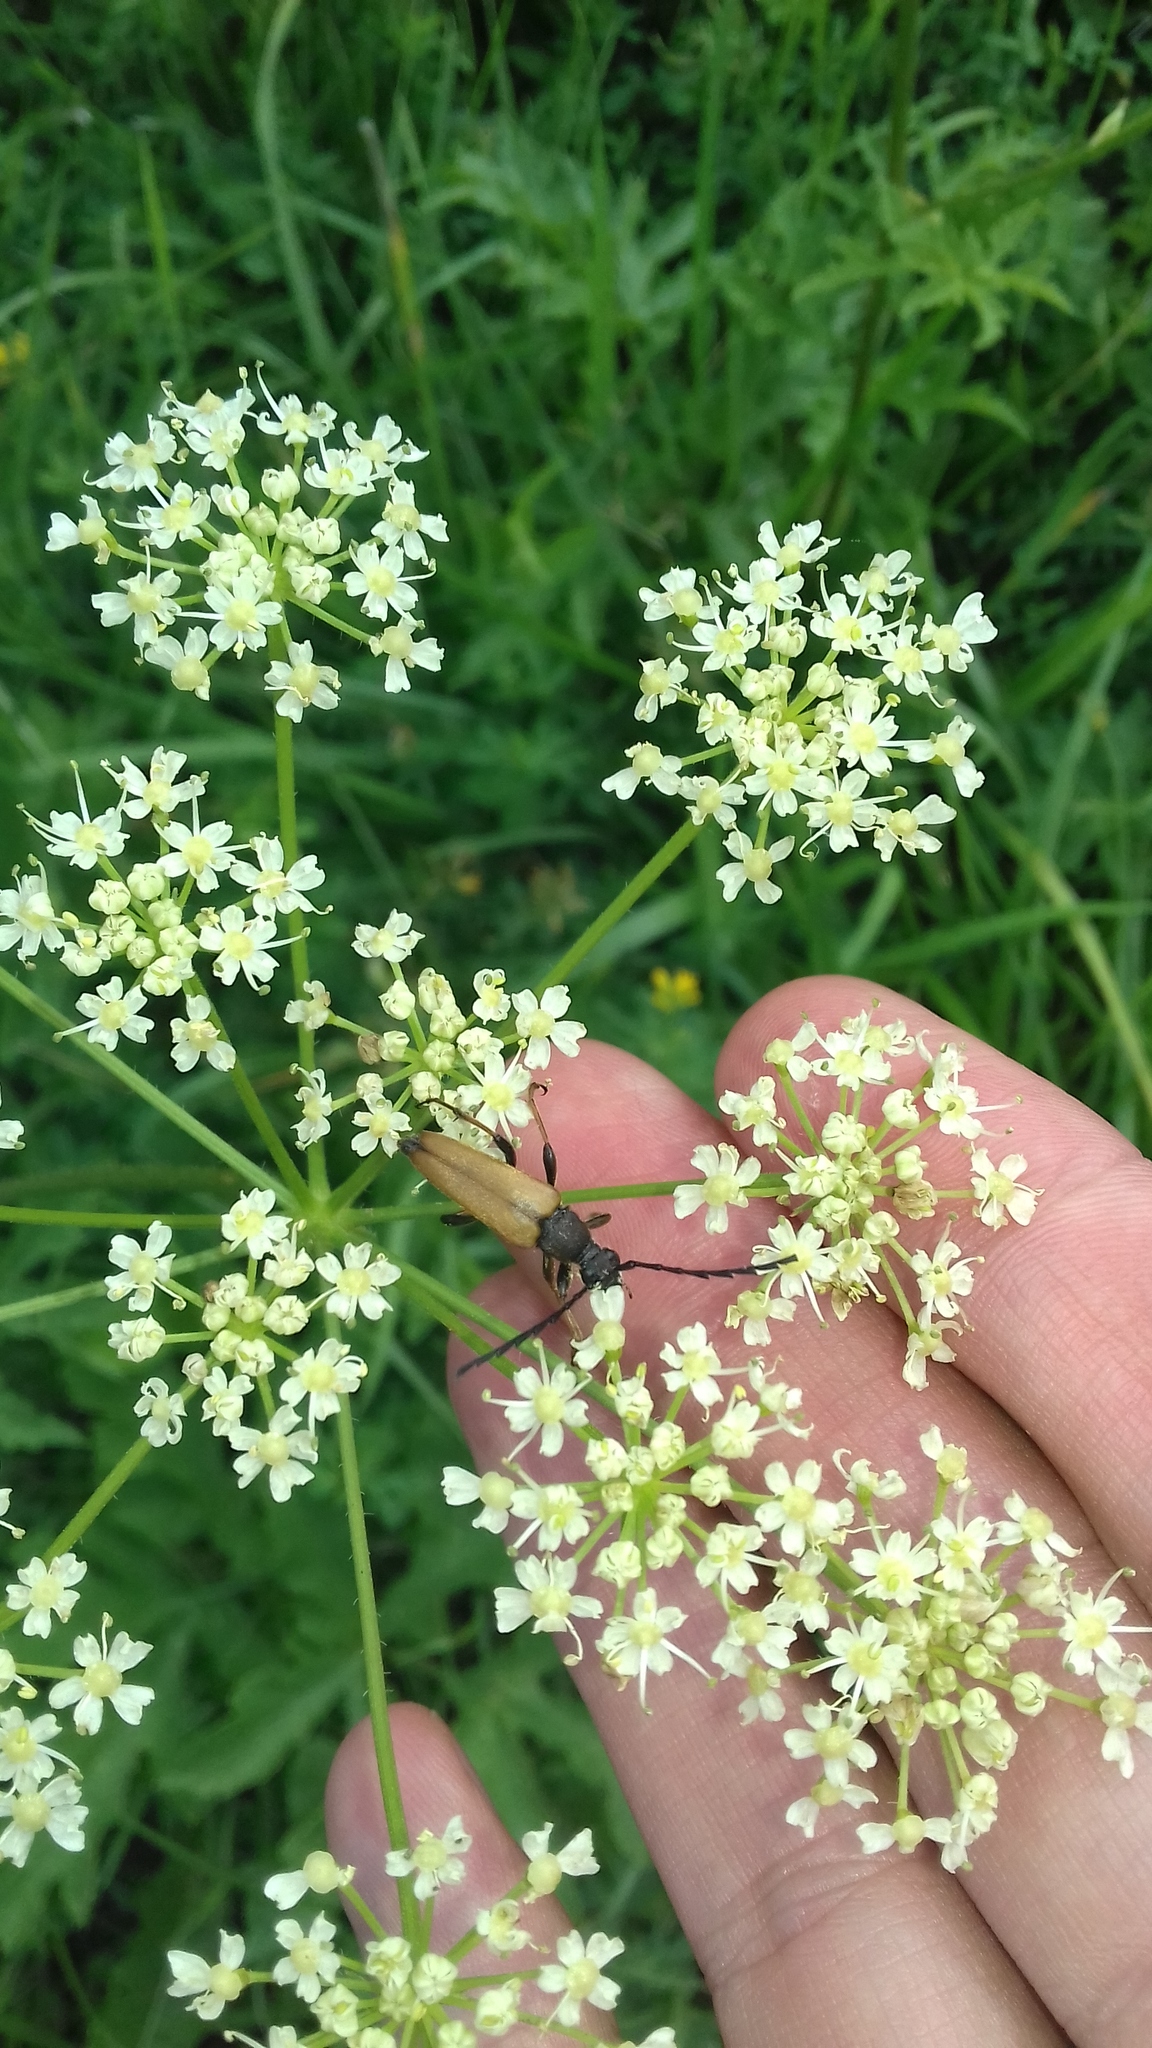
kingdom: Animalia
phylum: Arthropoda
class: Insecta
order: Coleoptera
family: Cerambycidae
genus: Stictoleptura
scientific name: Stictoleptura rubra
